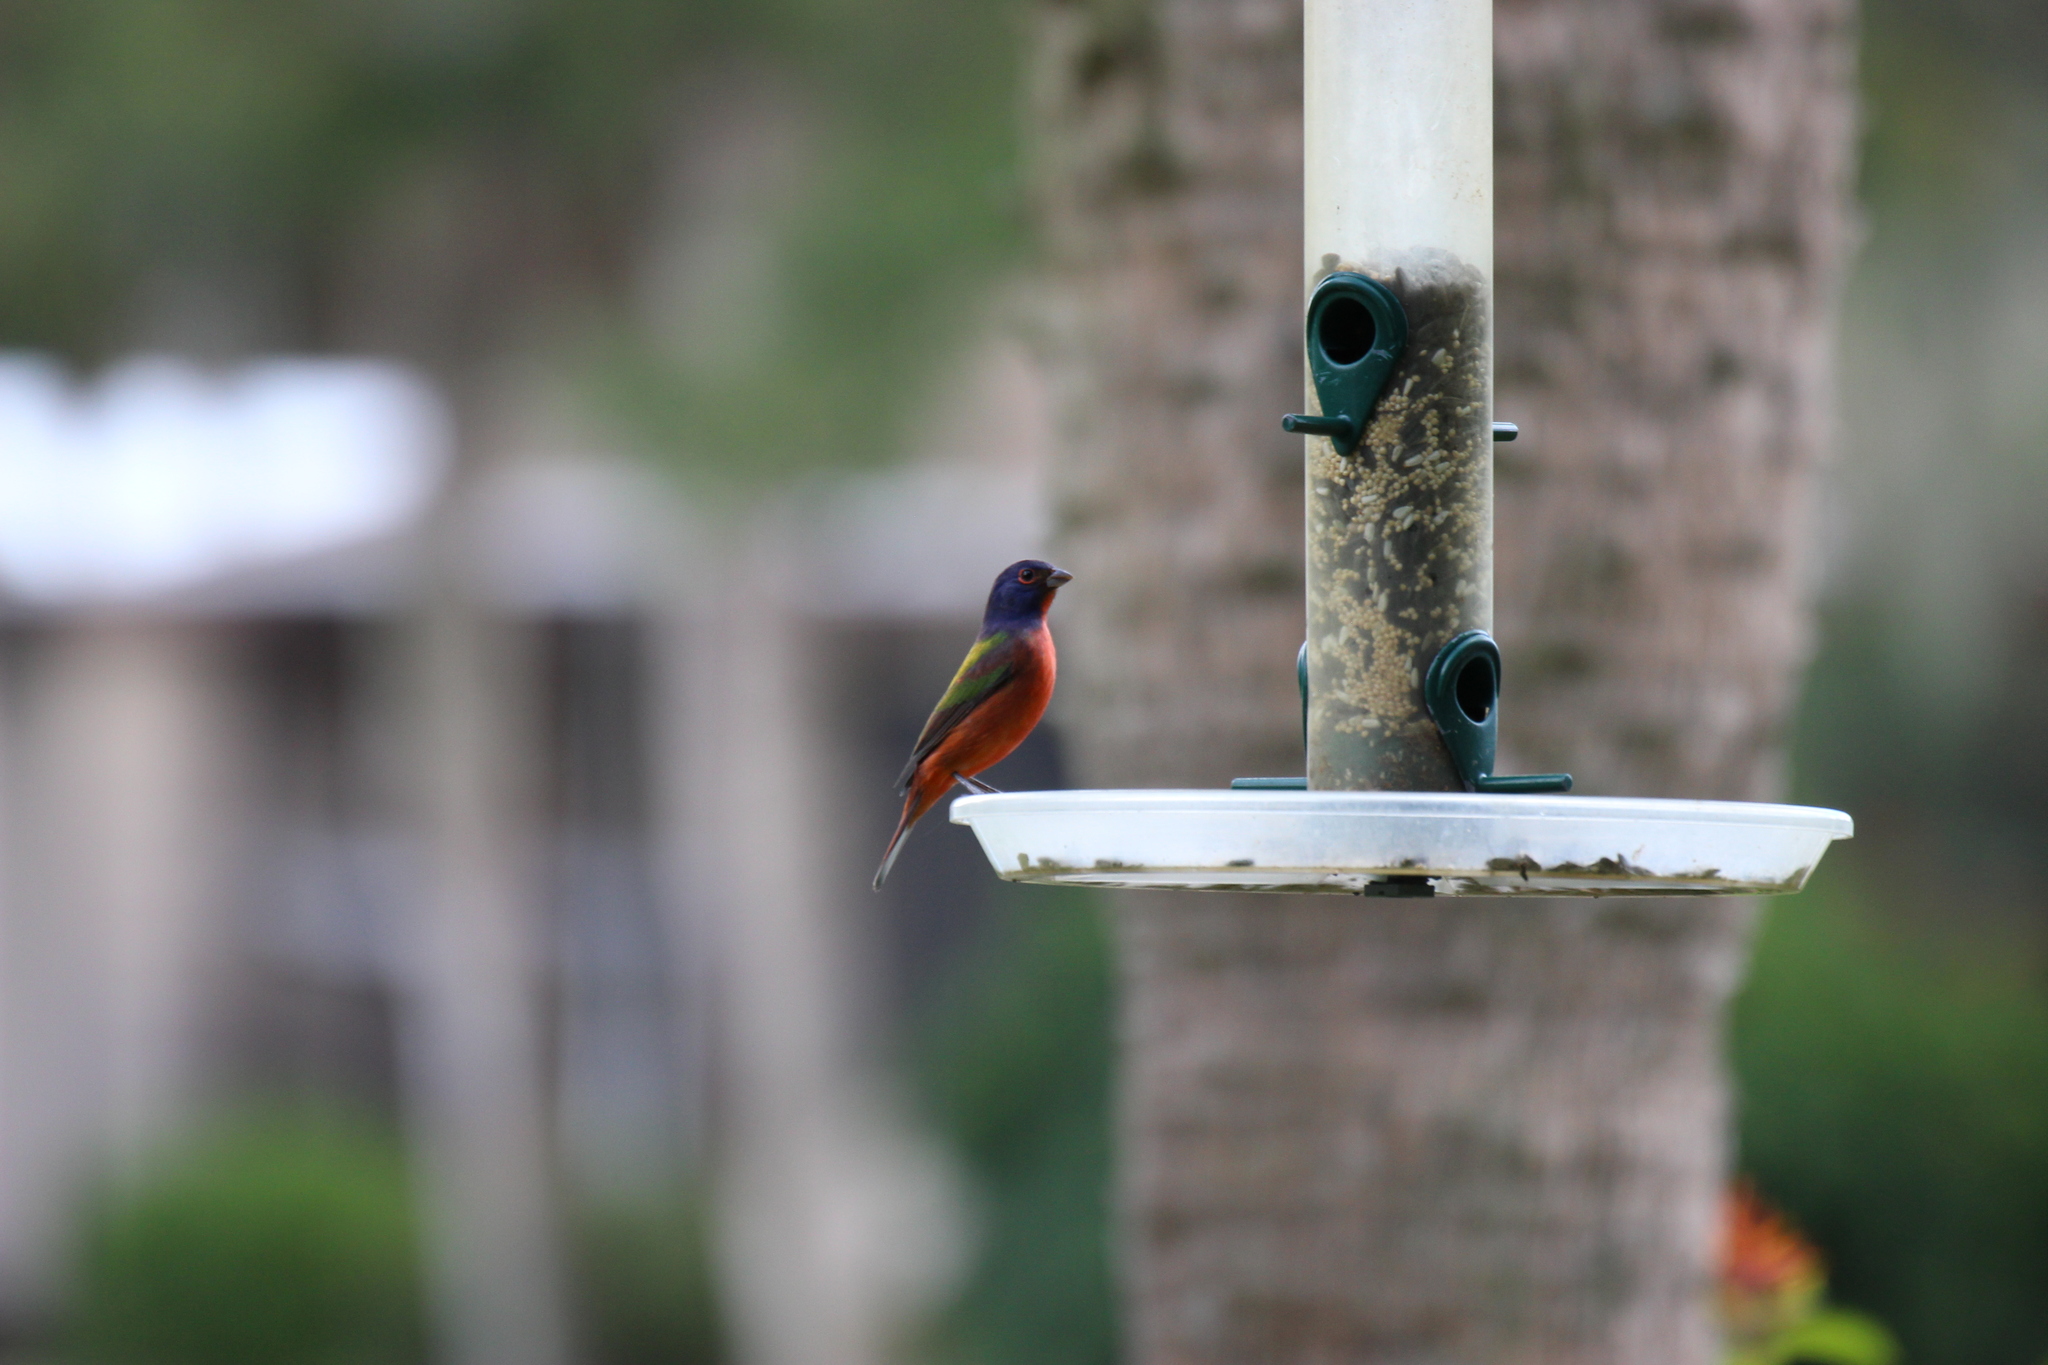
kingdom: Animalia
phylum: Chordata
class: Aves
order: Passeriformes
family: Cardinalidae
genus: Passerina
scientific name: Passerina ciris
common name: Painted bunting
